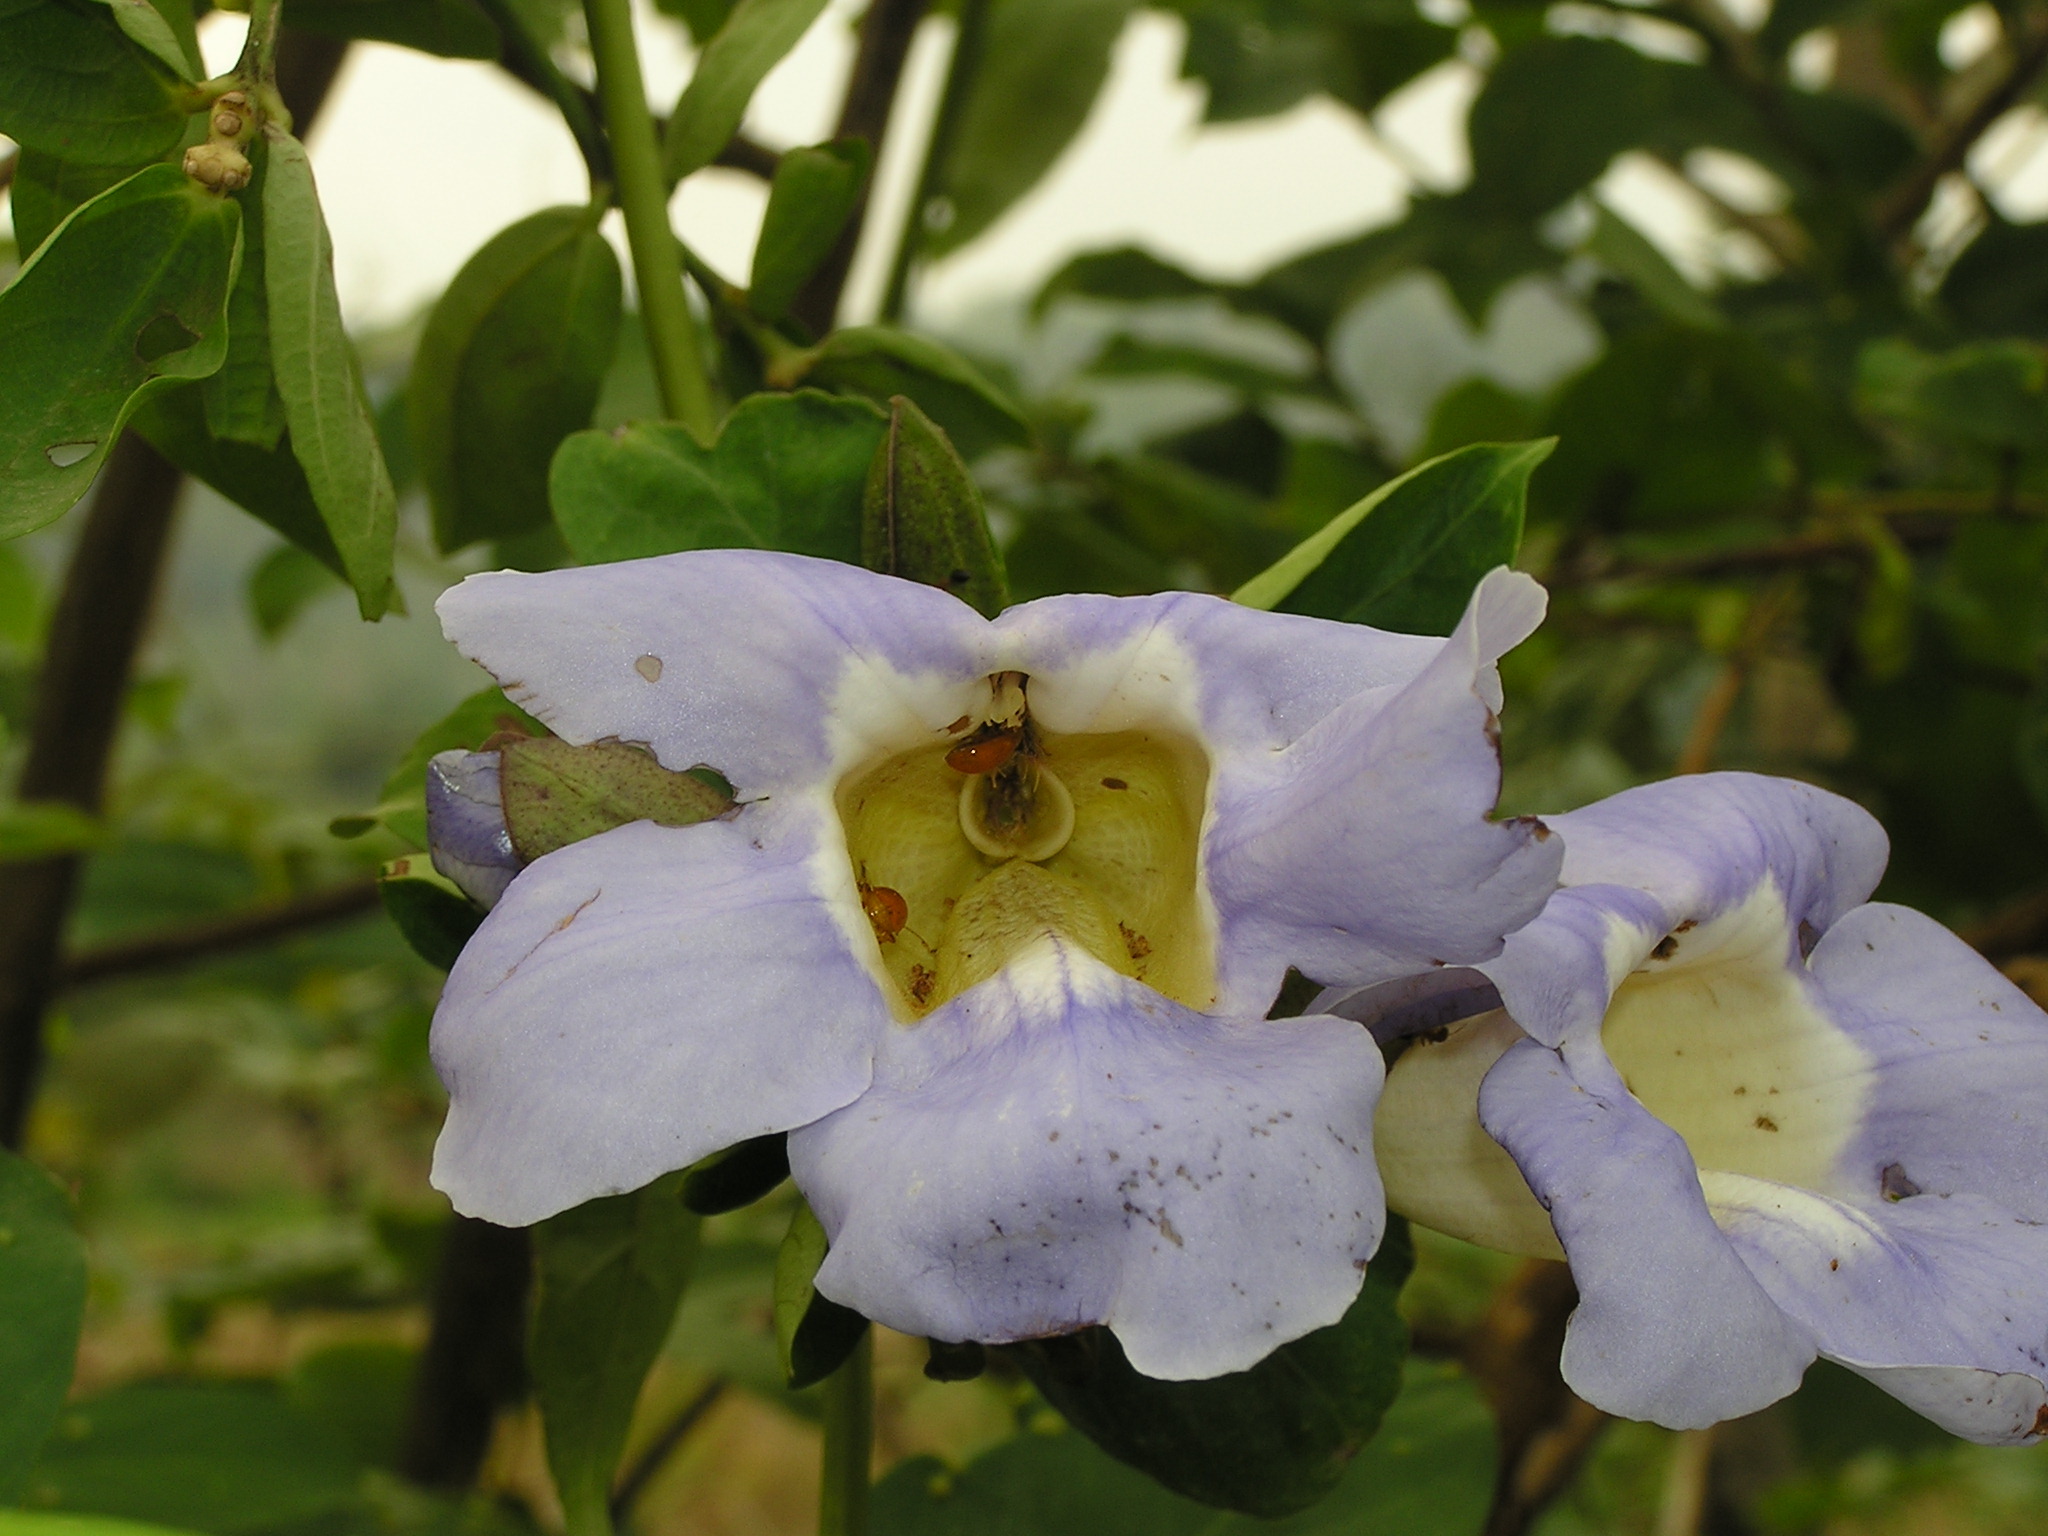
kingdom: Plantae
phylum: Tracheophyta
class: Magnoliopsida
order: Lamiales
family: Acanthaceae
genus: Thunbergia
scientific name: Thunbergia laurifolia
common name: Laurel-leaved thunbergia
